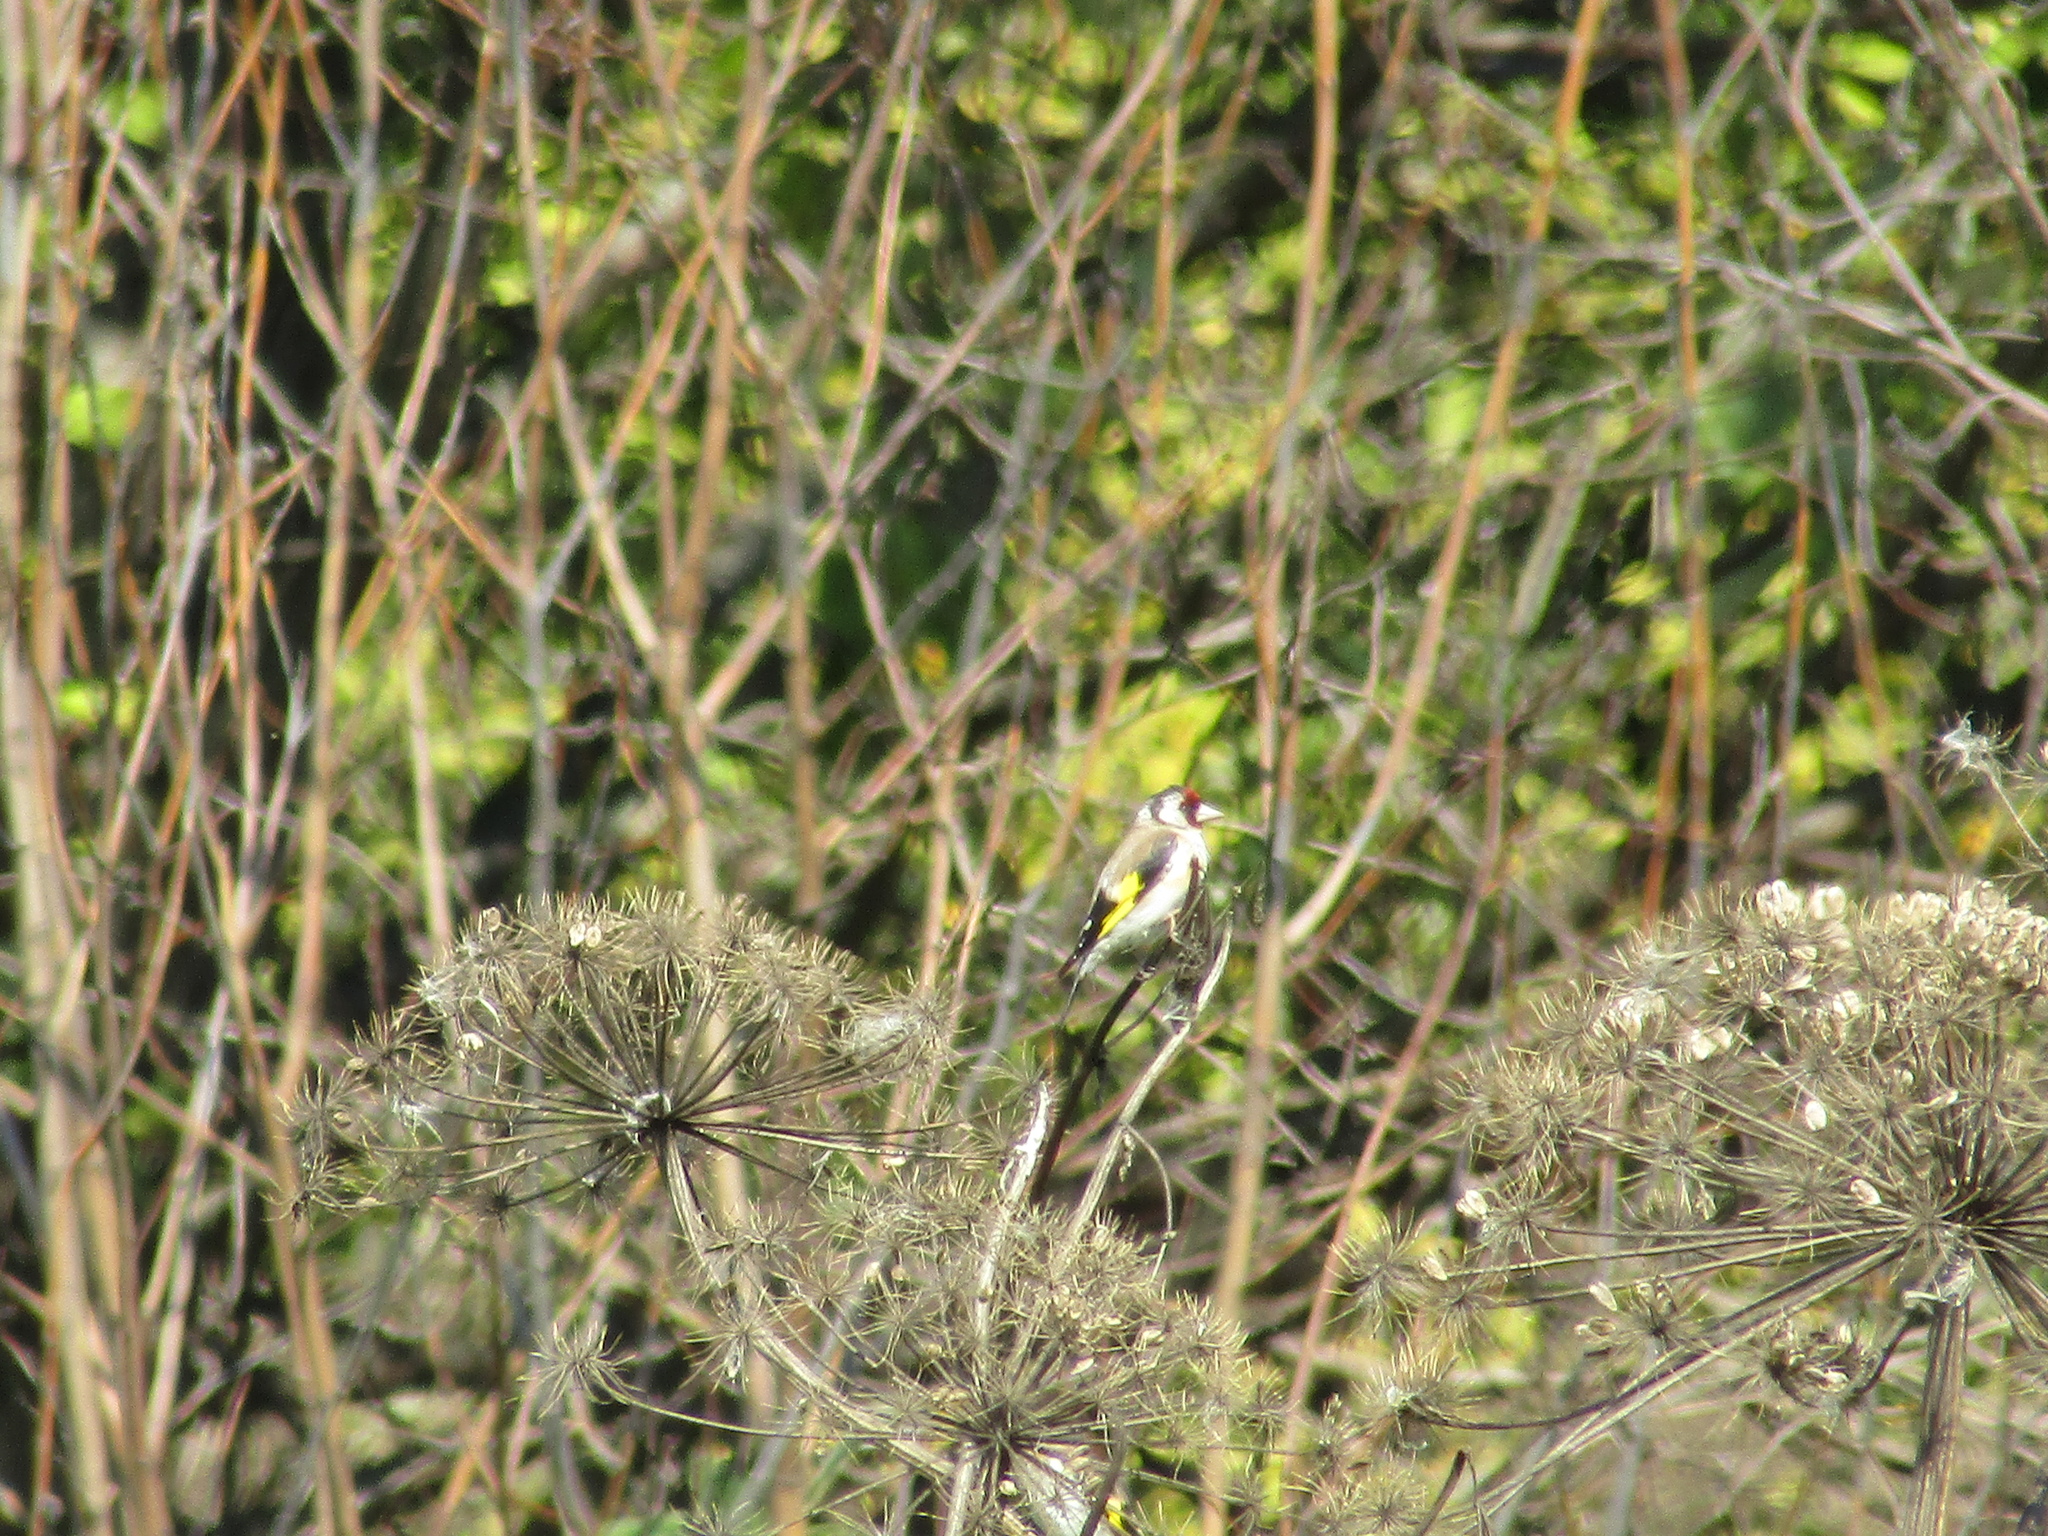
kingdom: Animalia
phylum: Chordata
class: Aves
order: Passeriformes
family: Fringillidae
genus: Carduelis
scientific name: Carduelis carduelis
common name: European goldfinch
